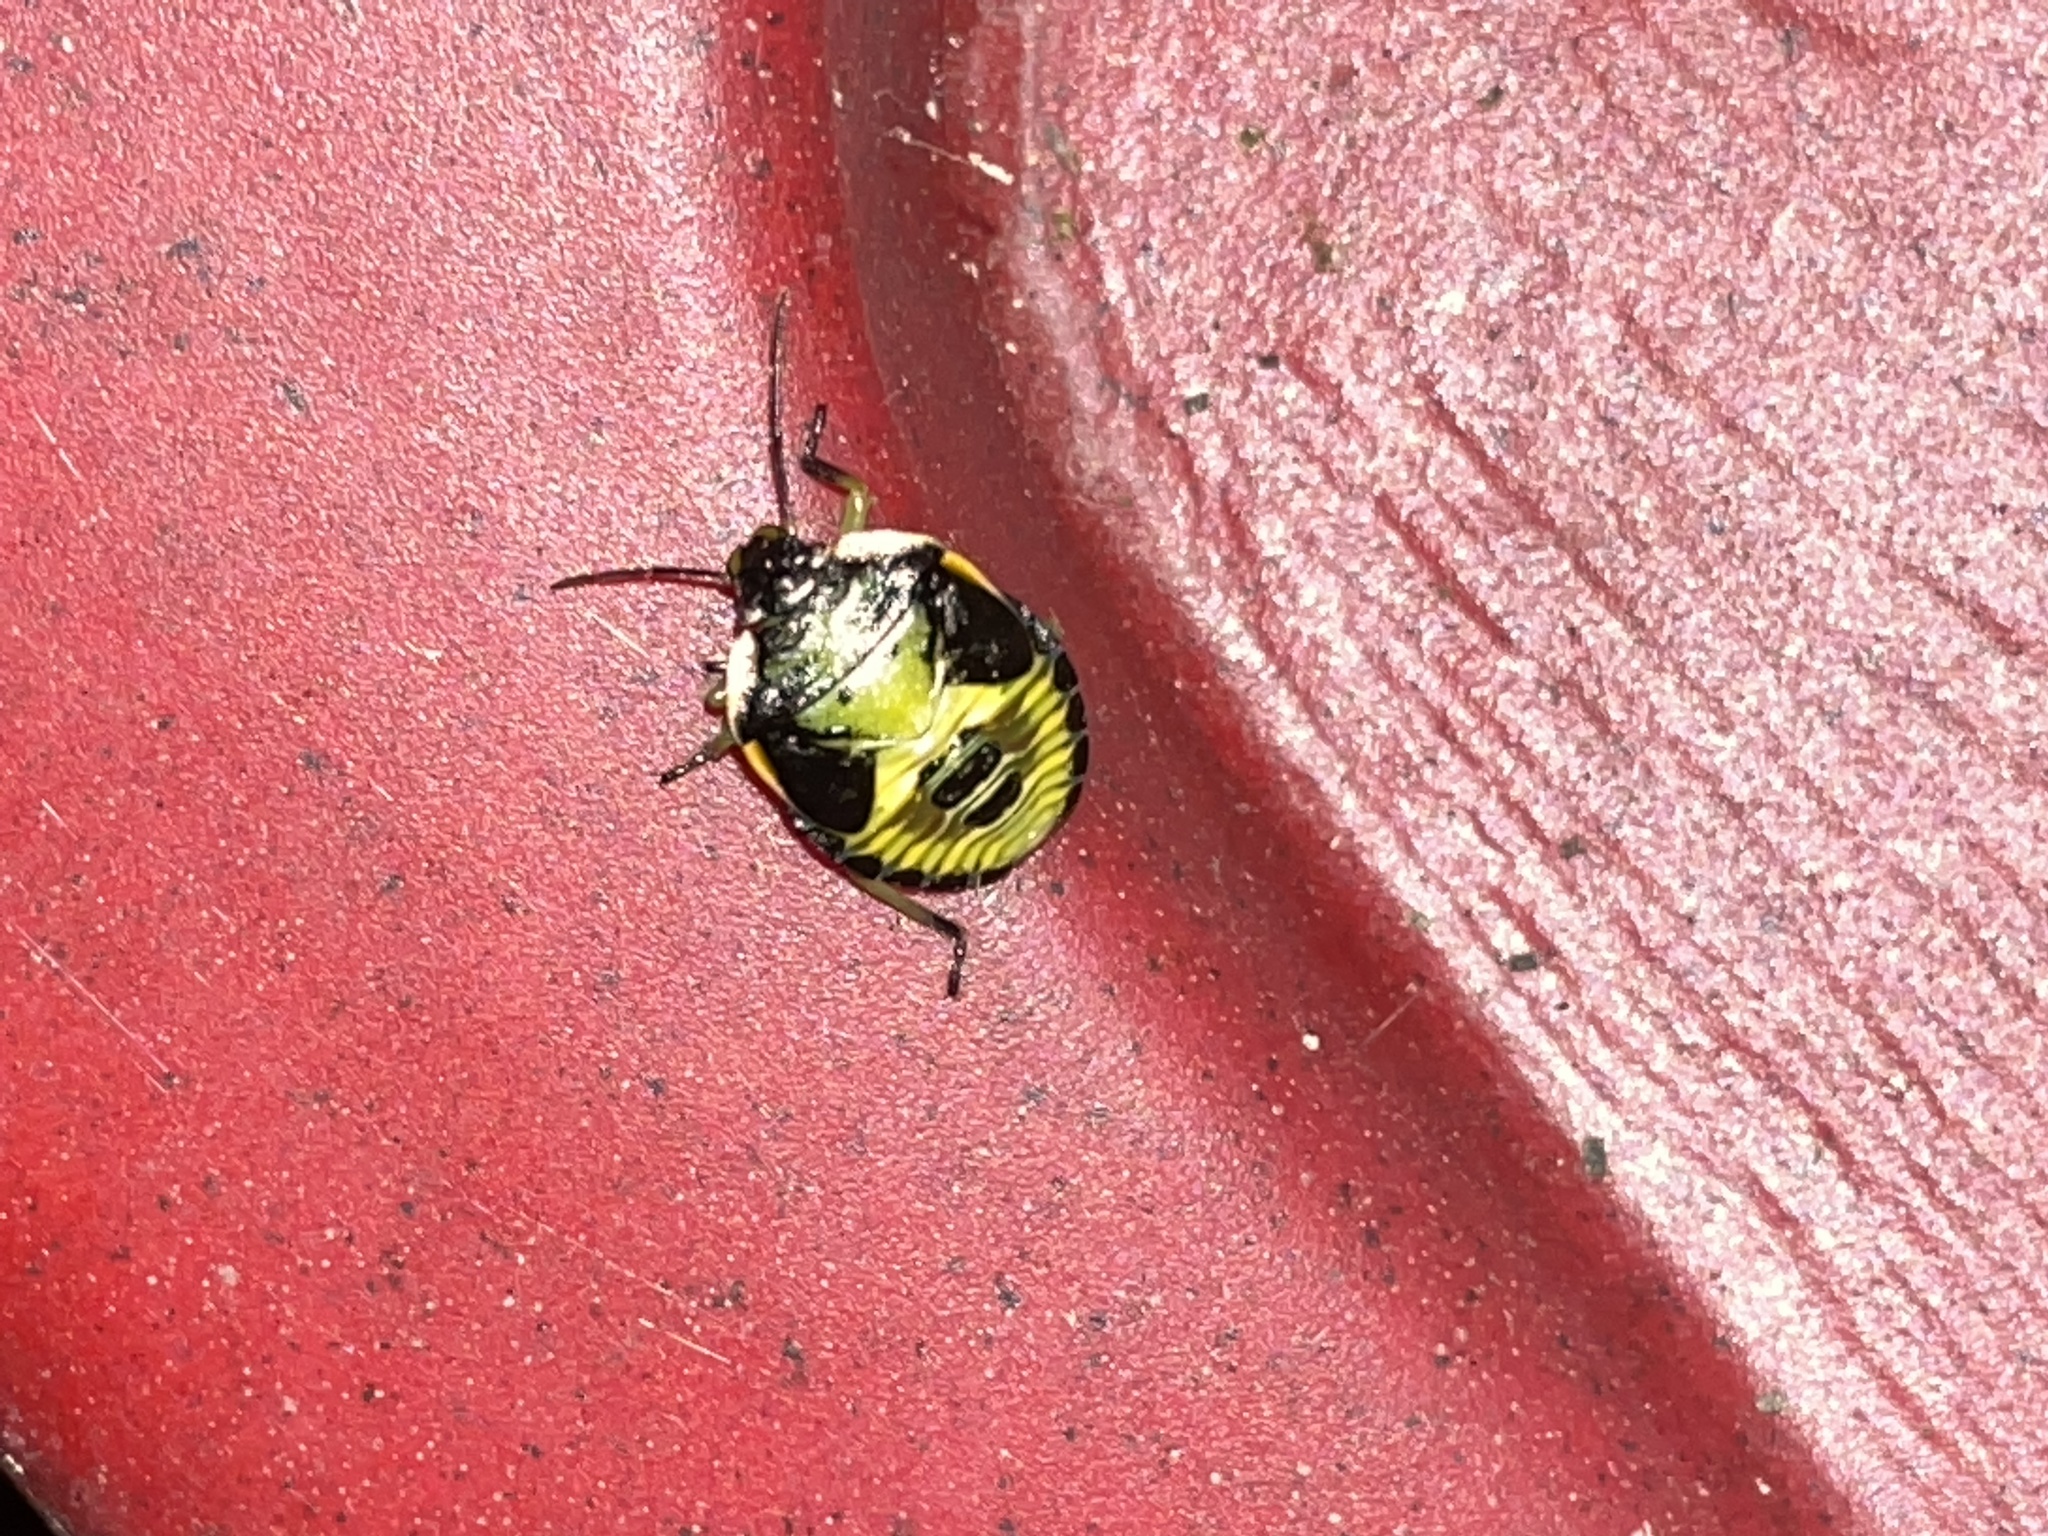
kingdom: Animalia
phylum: Arthropoda
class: Insecta
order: Hemiptera
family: Pentatomidae
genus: Chinavia
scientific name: Chinavia hilaris
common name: Green stink bug
